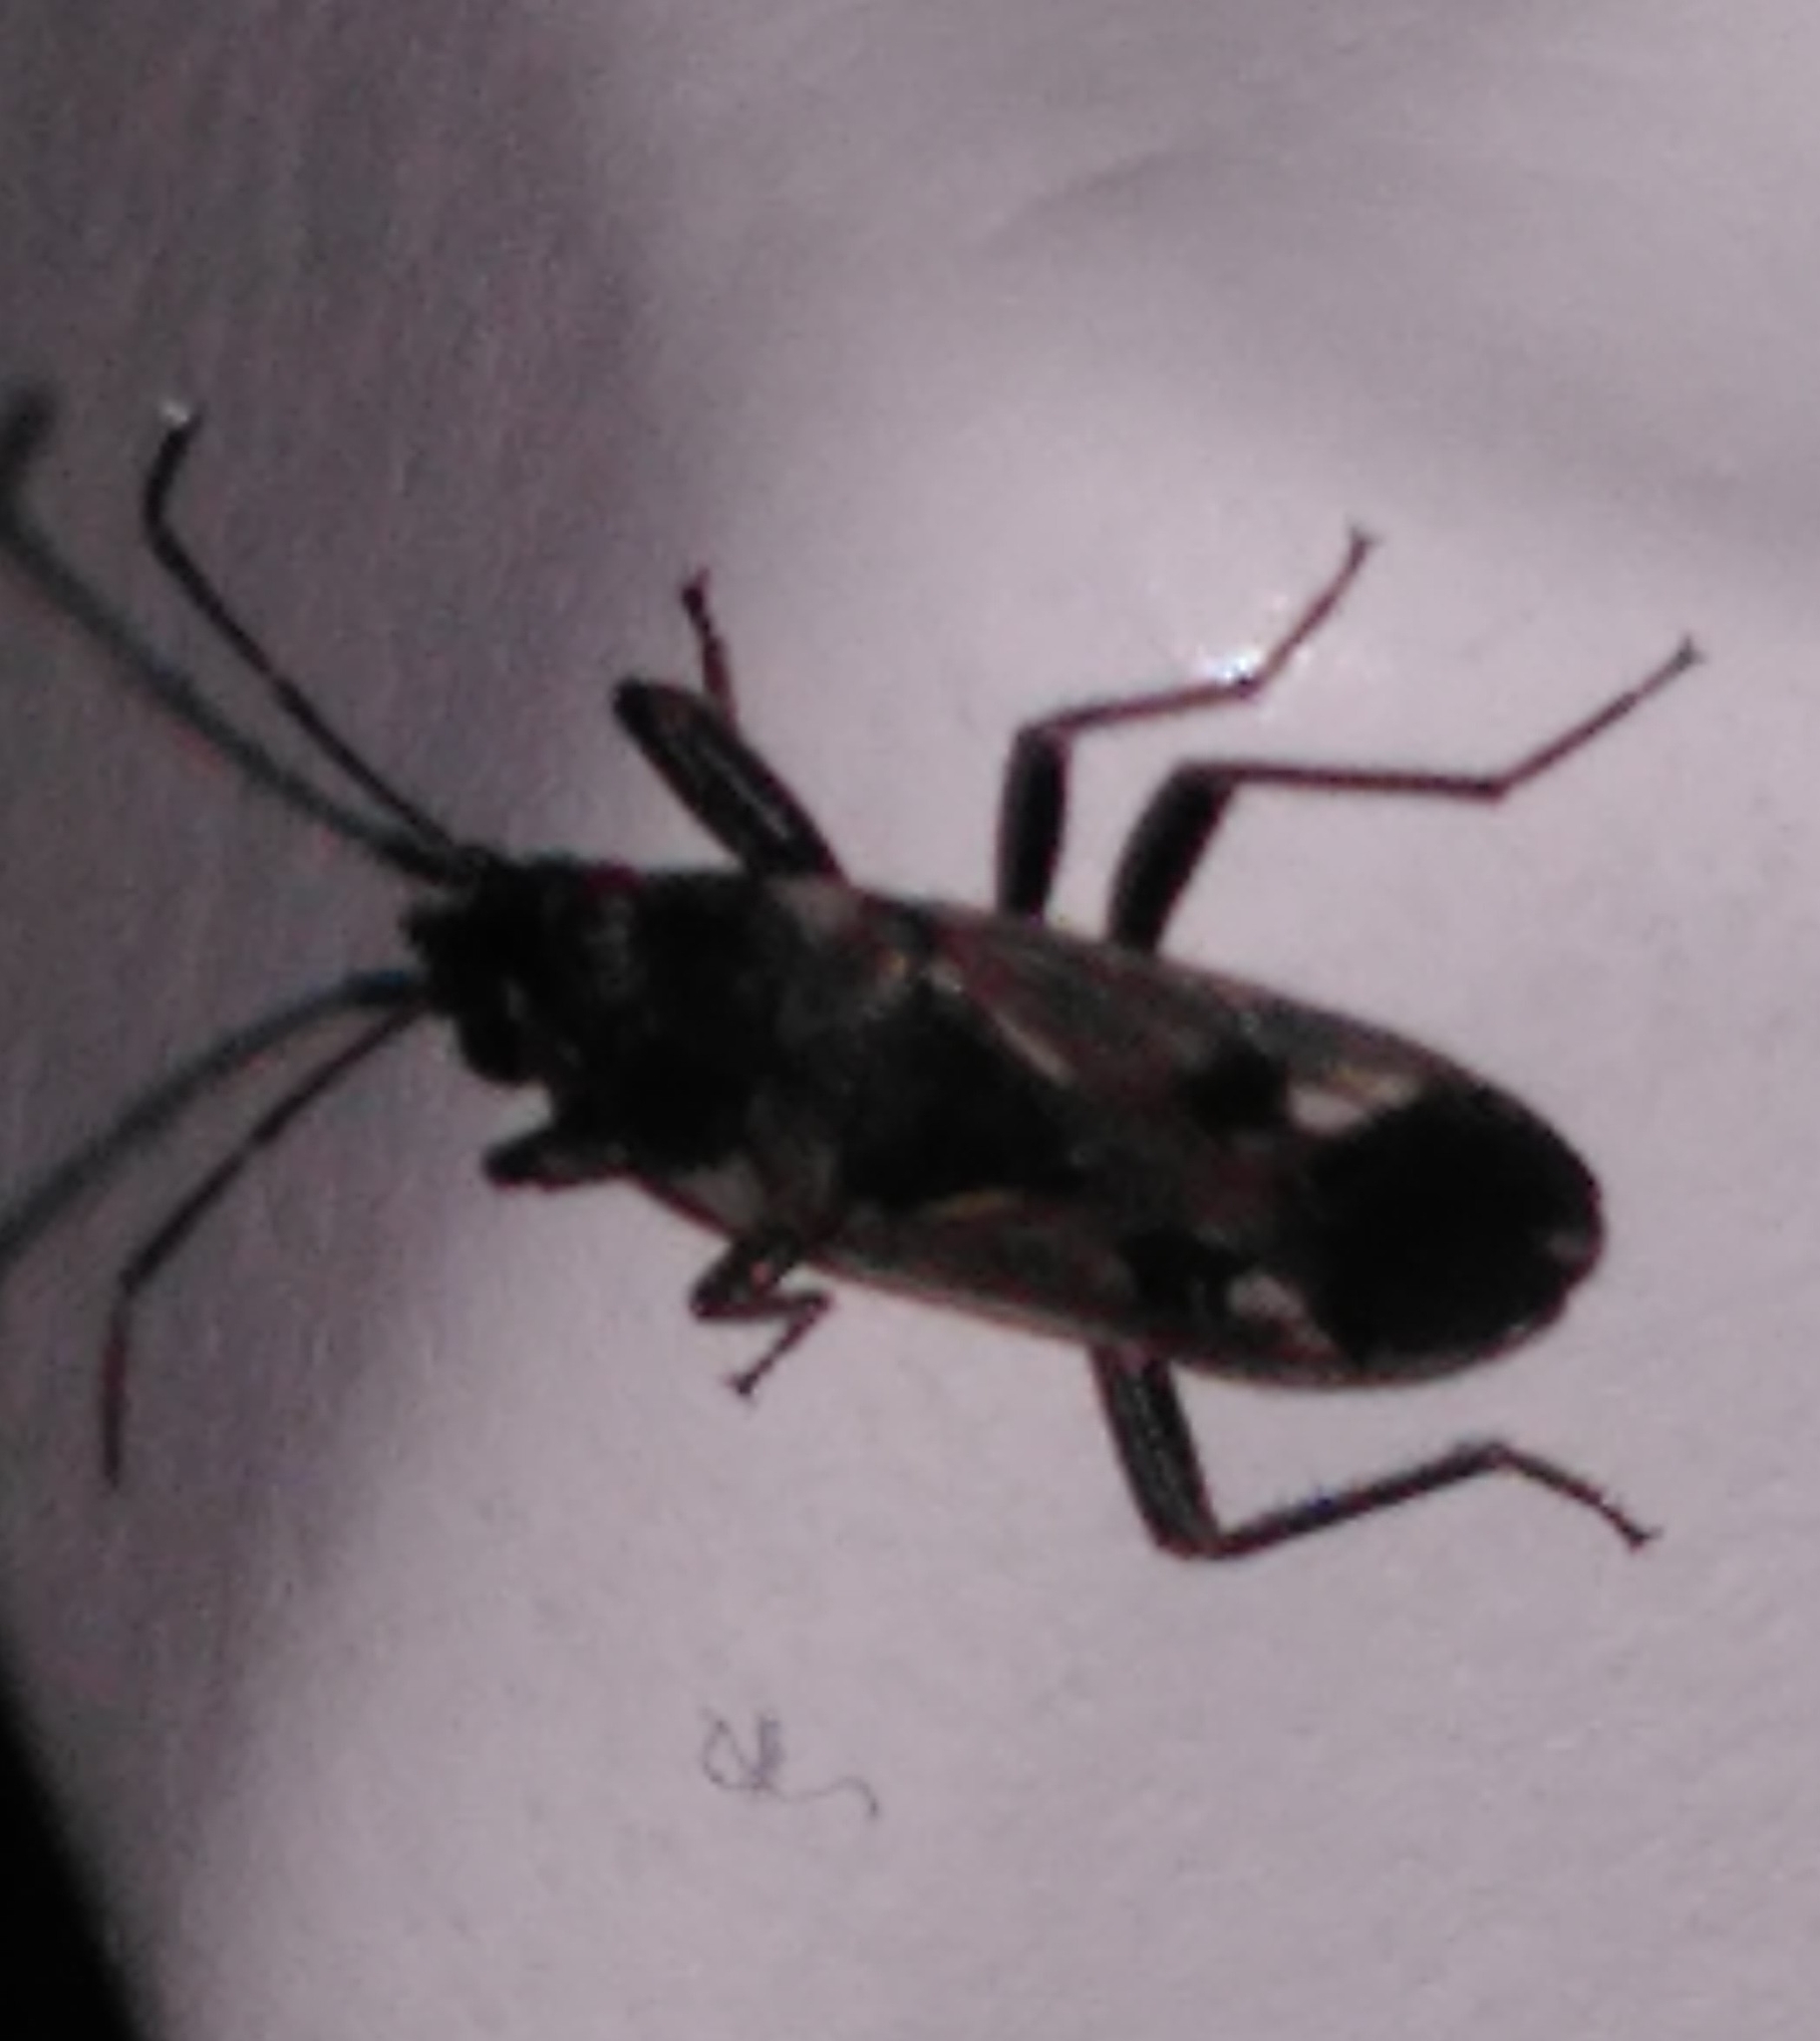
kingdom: Animalia
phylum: Arthropoda
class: Insecta
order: Hemiptera
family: Rhyparochromidae
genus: Rhyparochromus
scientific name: Rhyparochromus vulgaris
